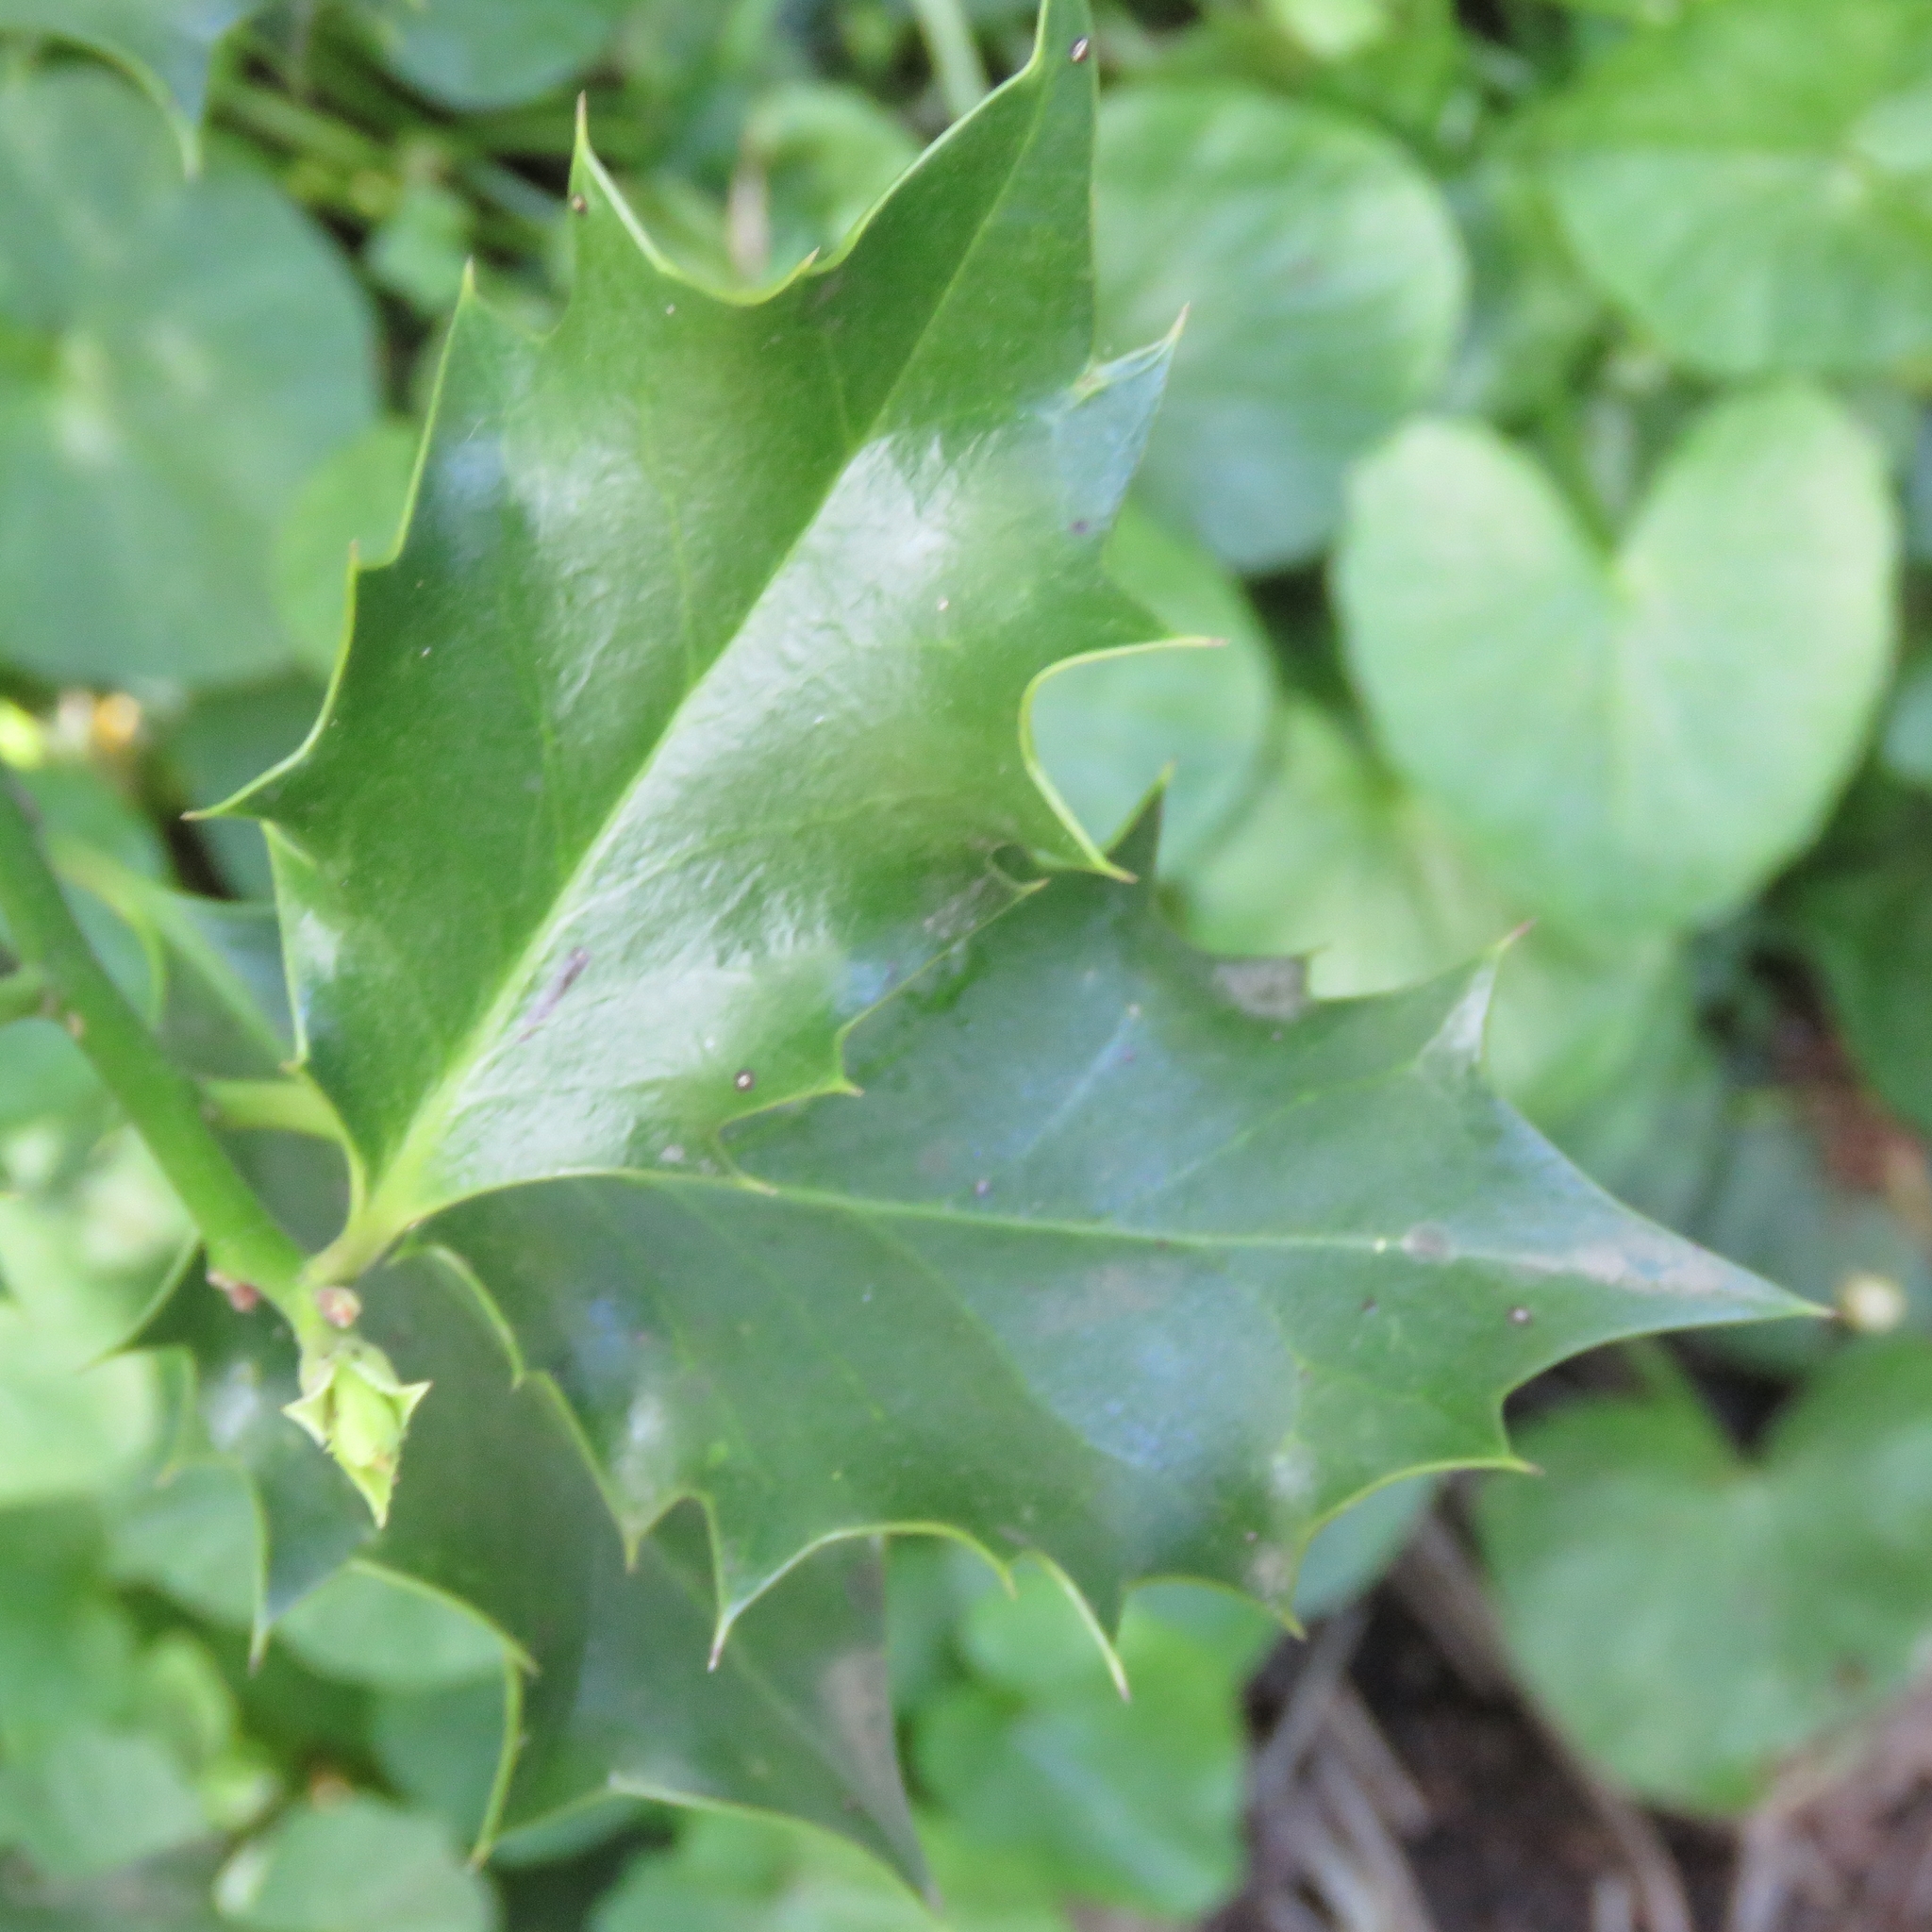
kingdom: Plantae
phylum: Tracheophyta
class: Magnoliopsida
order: Aquifoliales
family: Aquifoliaceae
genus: Ilex
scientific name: Ilex aquifolium
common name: English holly
